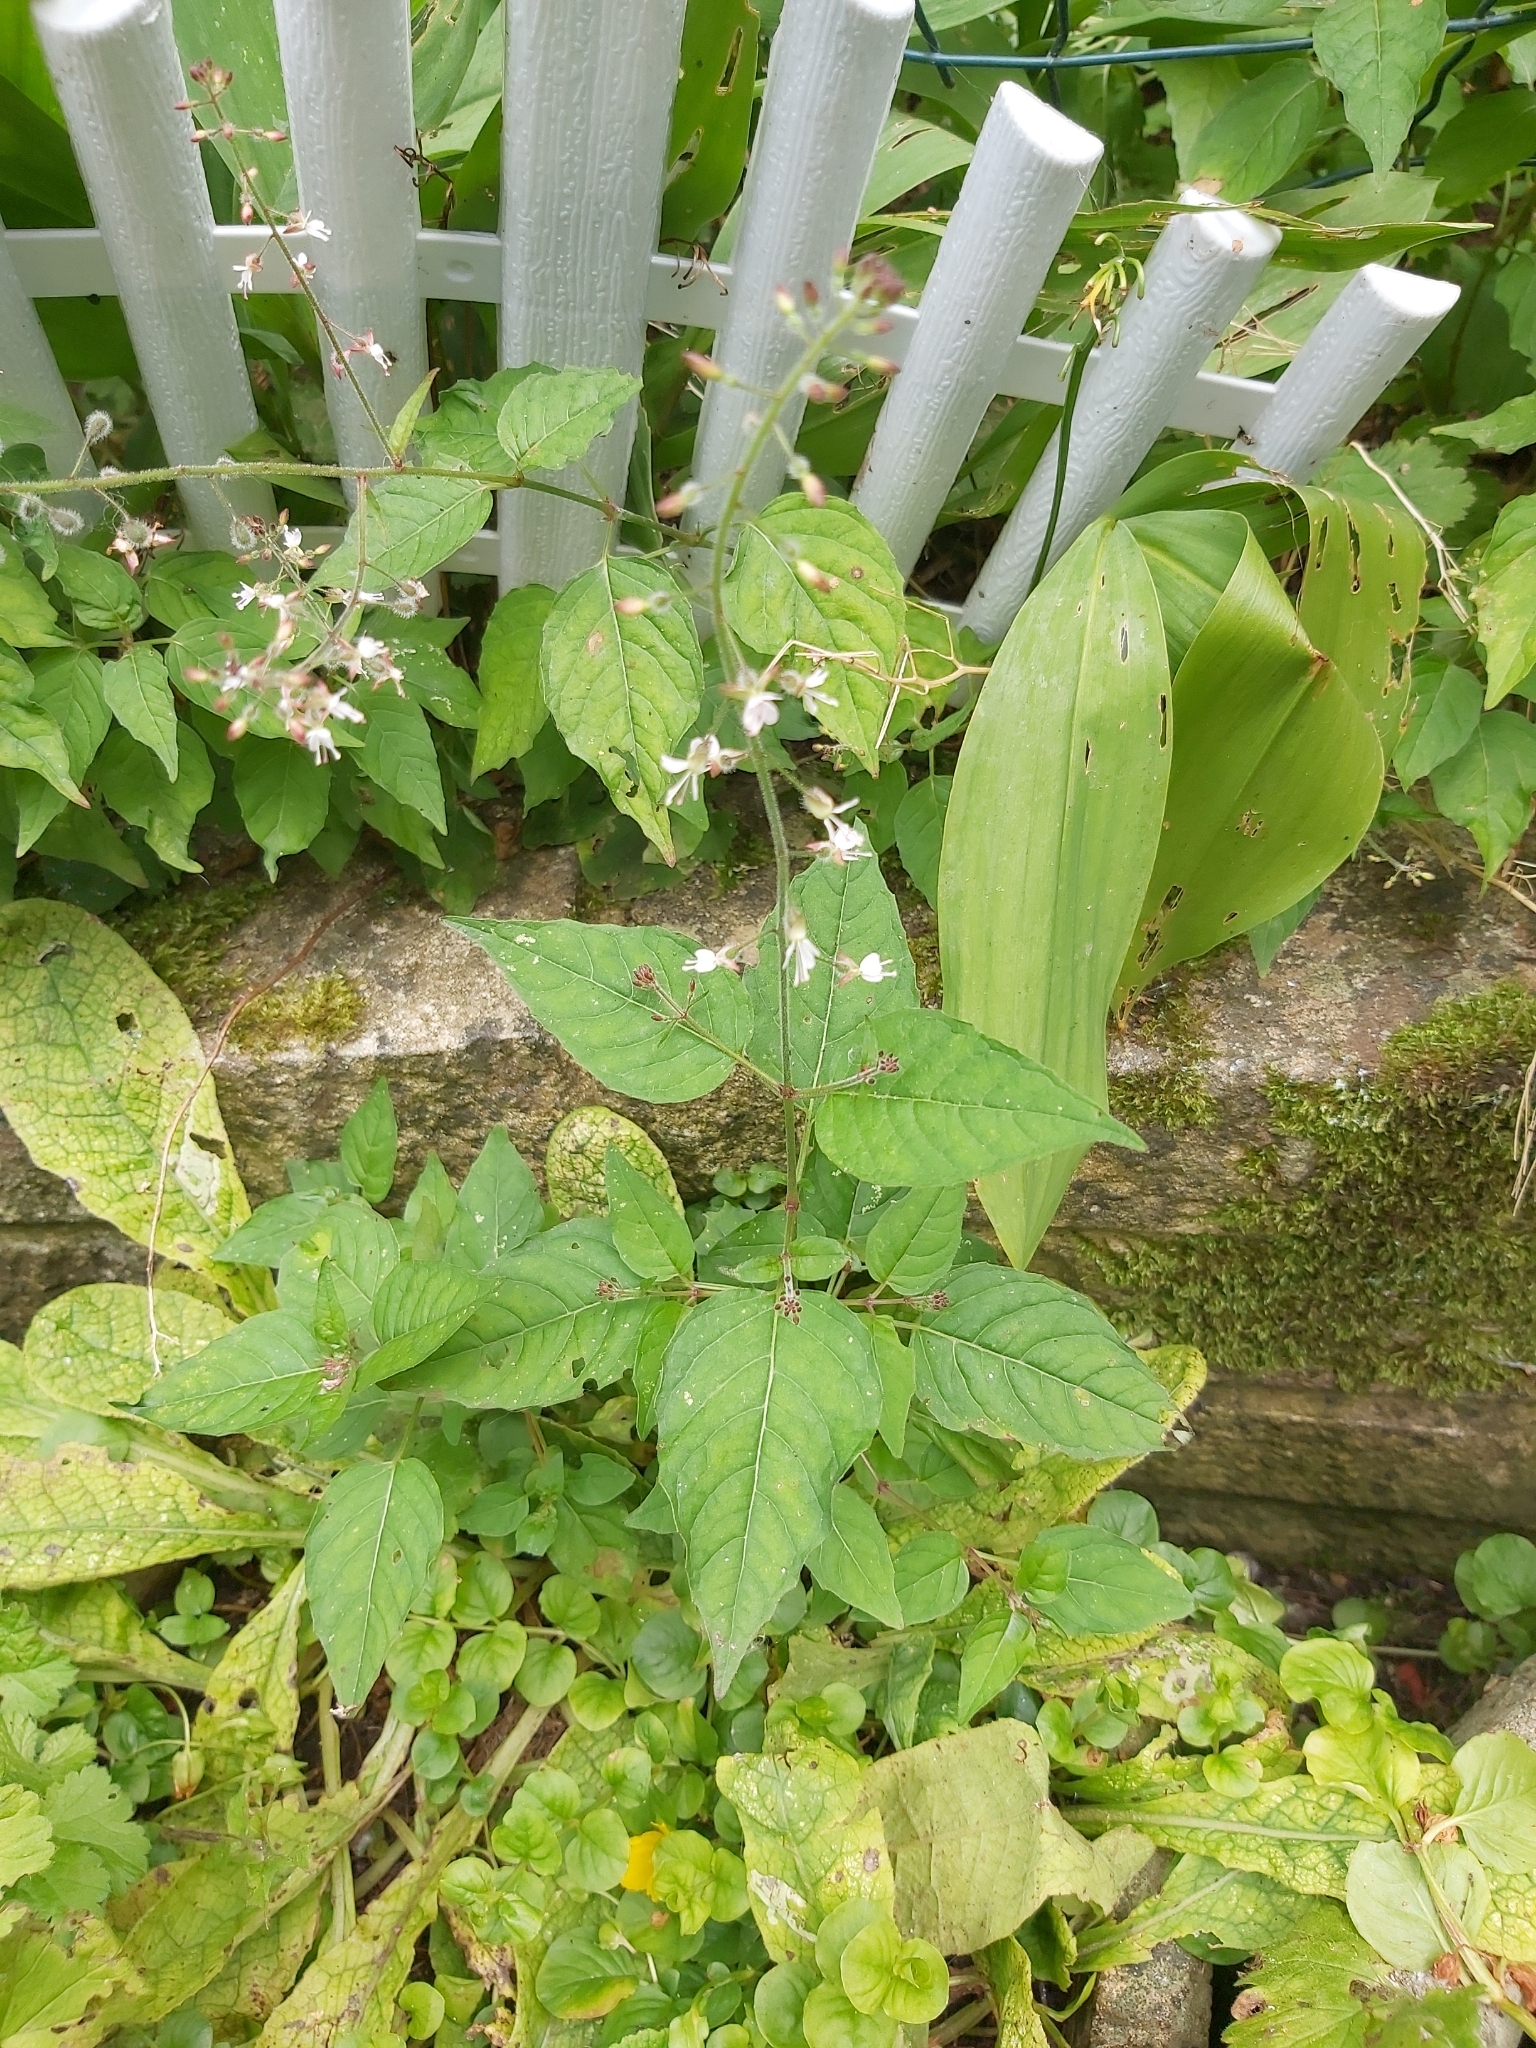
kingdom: Plantae
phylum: Tracheophyta
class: Magnoliopsida
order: Myrtales
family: Onagraceae
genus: Circaea
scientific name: Circaea lutetiana
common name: Enchanter's-nightshade
